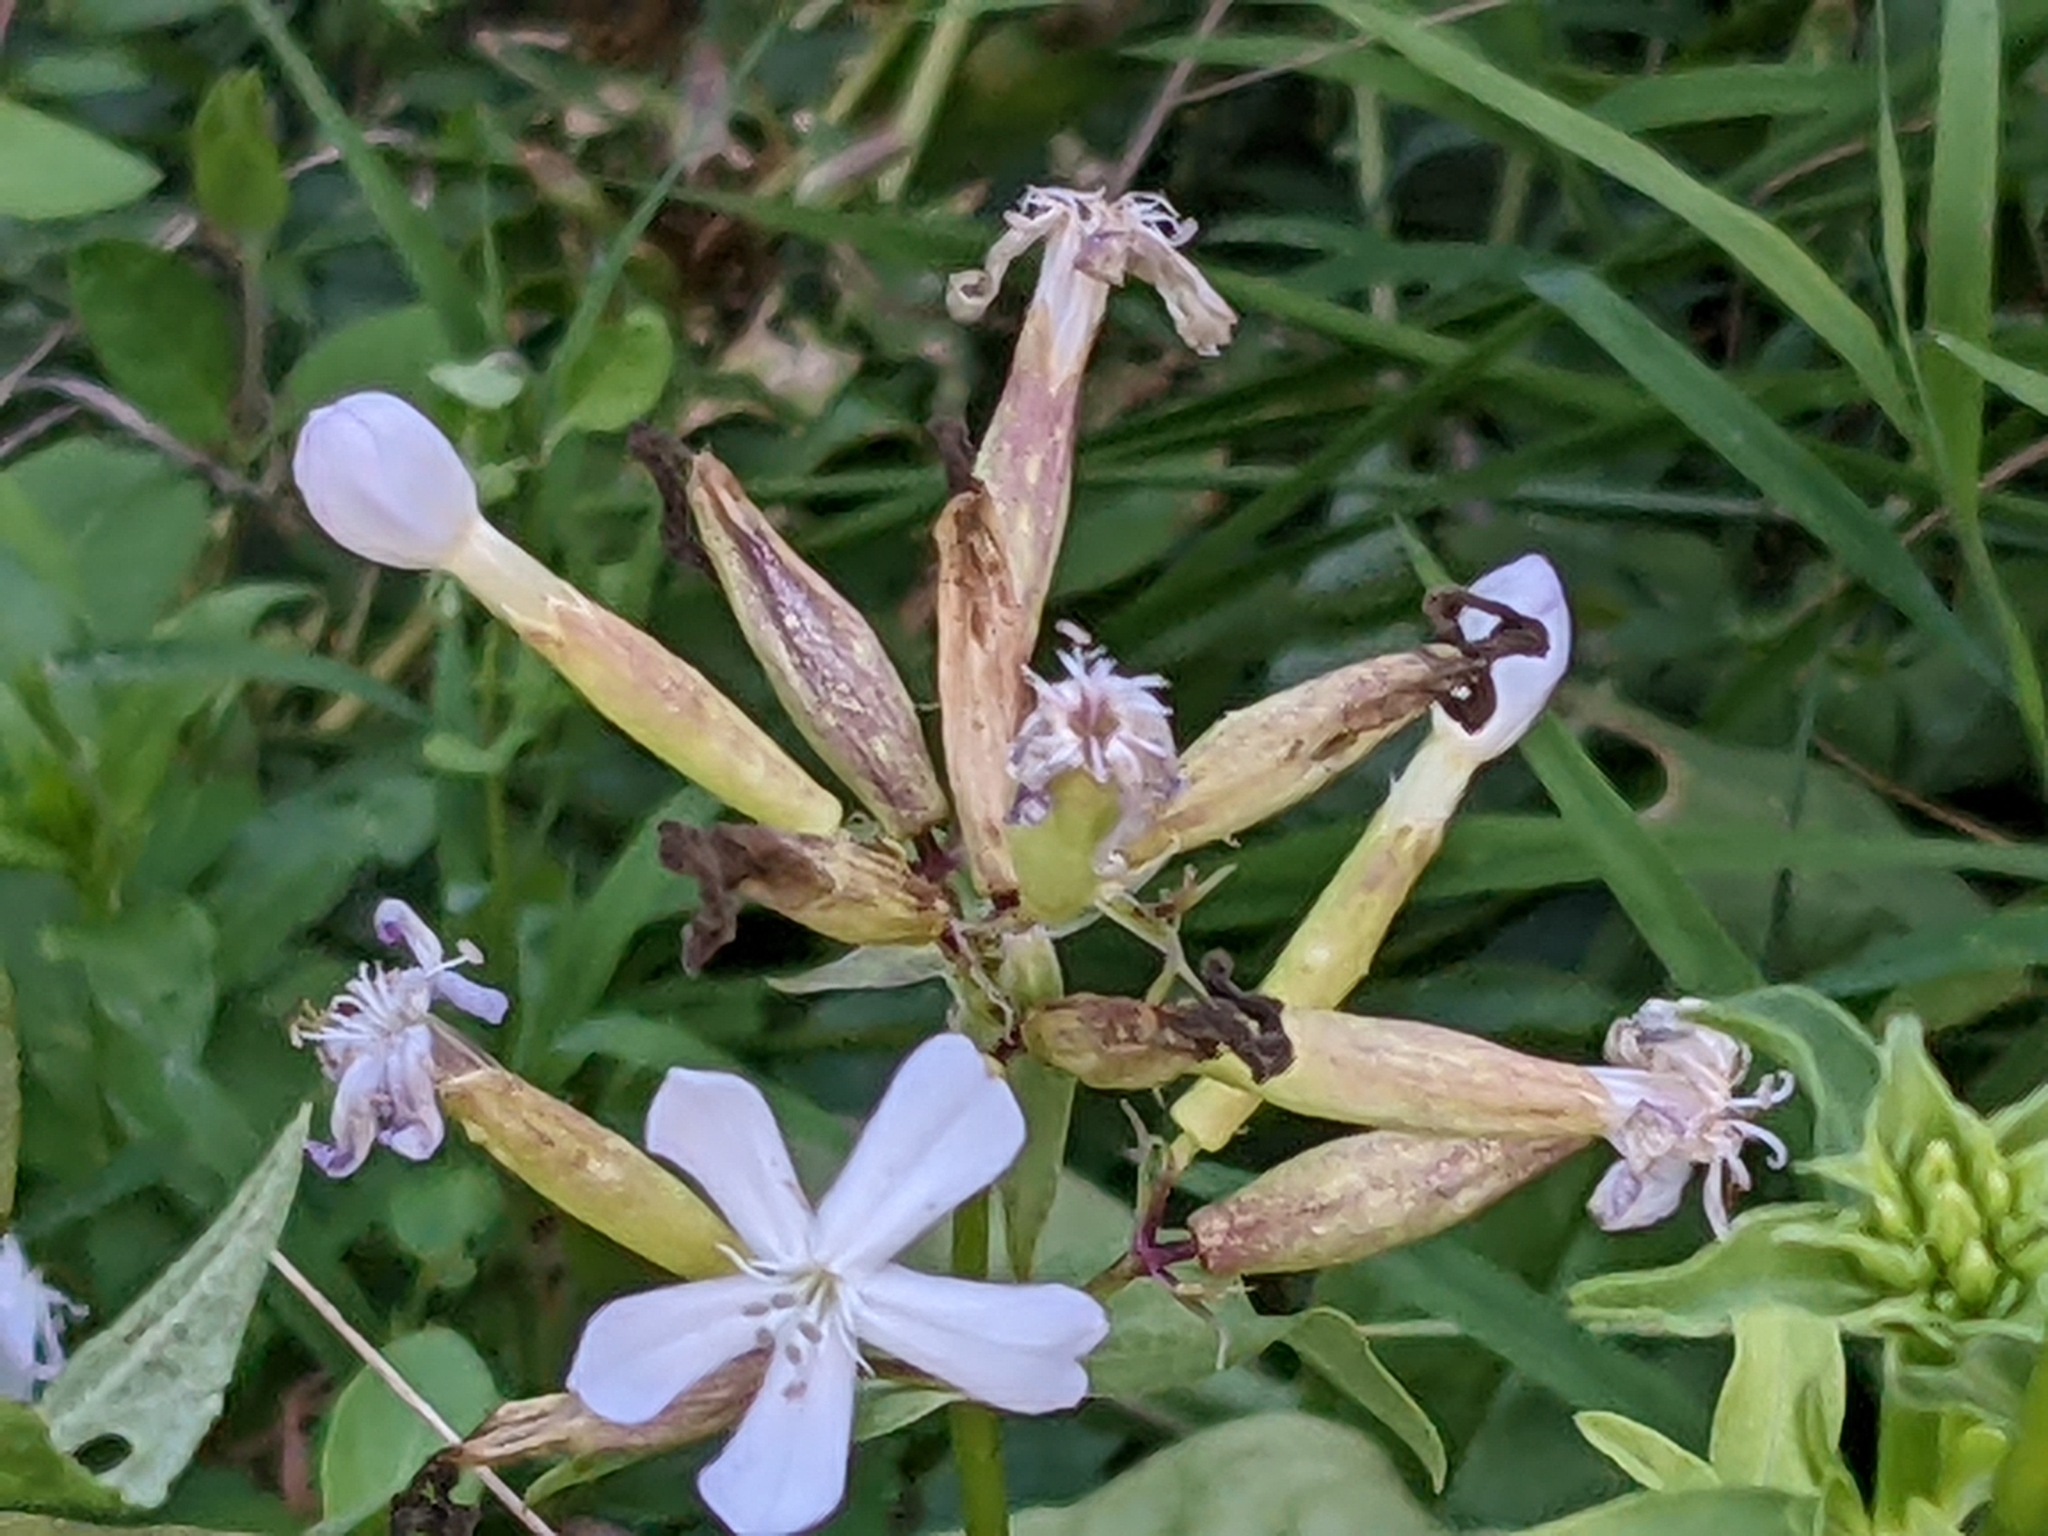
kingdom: Plantae
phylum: Tracheophyta
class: Magnoliopsida
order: Caryophyllales
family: Caryophyllaceae
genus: Saponaria
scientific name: Saponaria officinalis
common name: Soapwort
